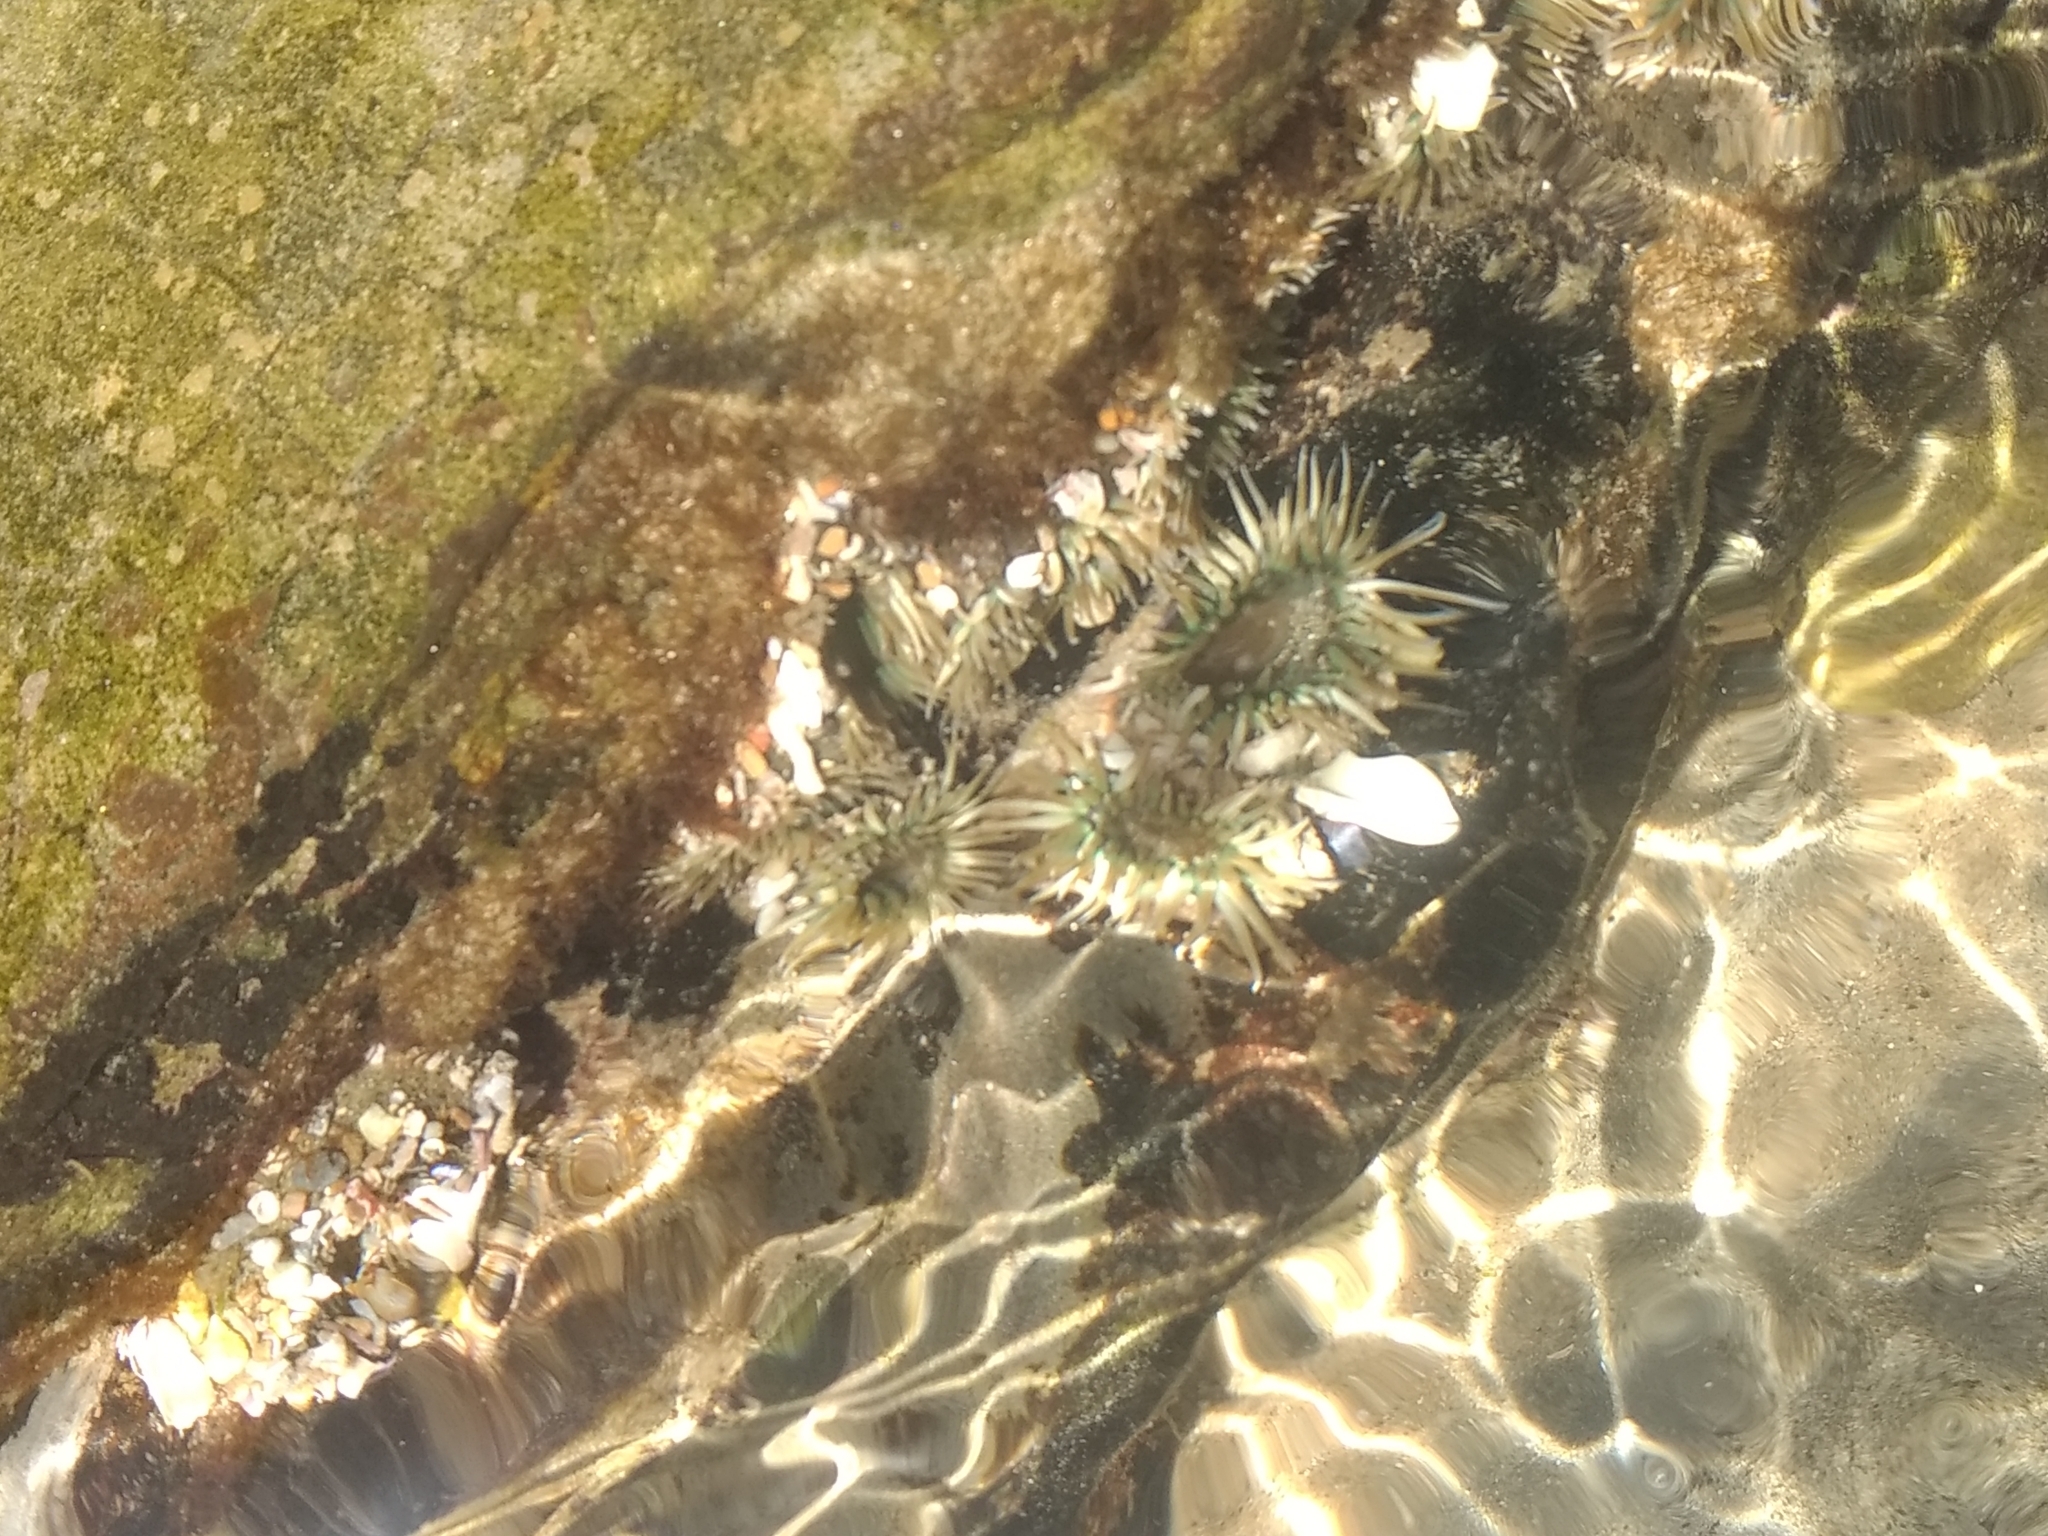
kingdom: Animalia
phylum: Cnidaria
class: Anthozoa
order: Actiniaria
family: Actiniidae
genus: Anthopleura
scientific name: Anthopleura elegantissima
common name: Clonal anemone
